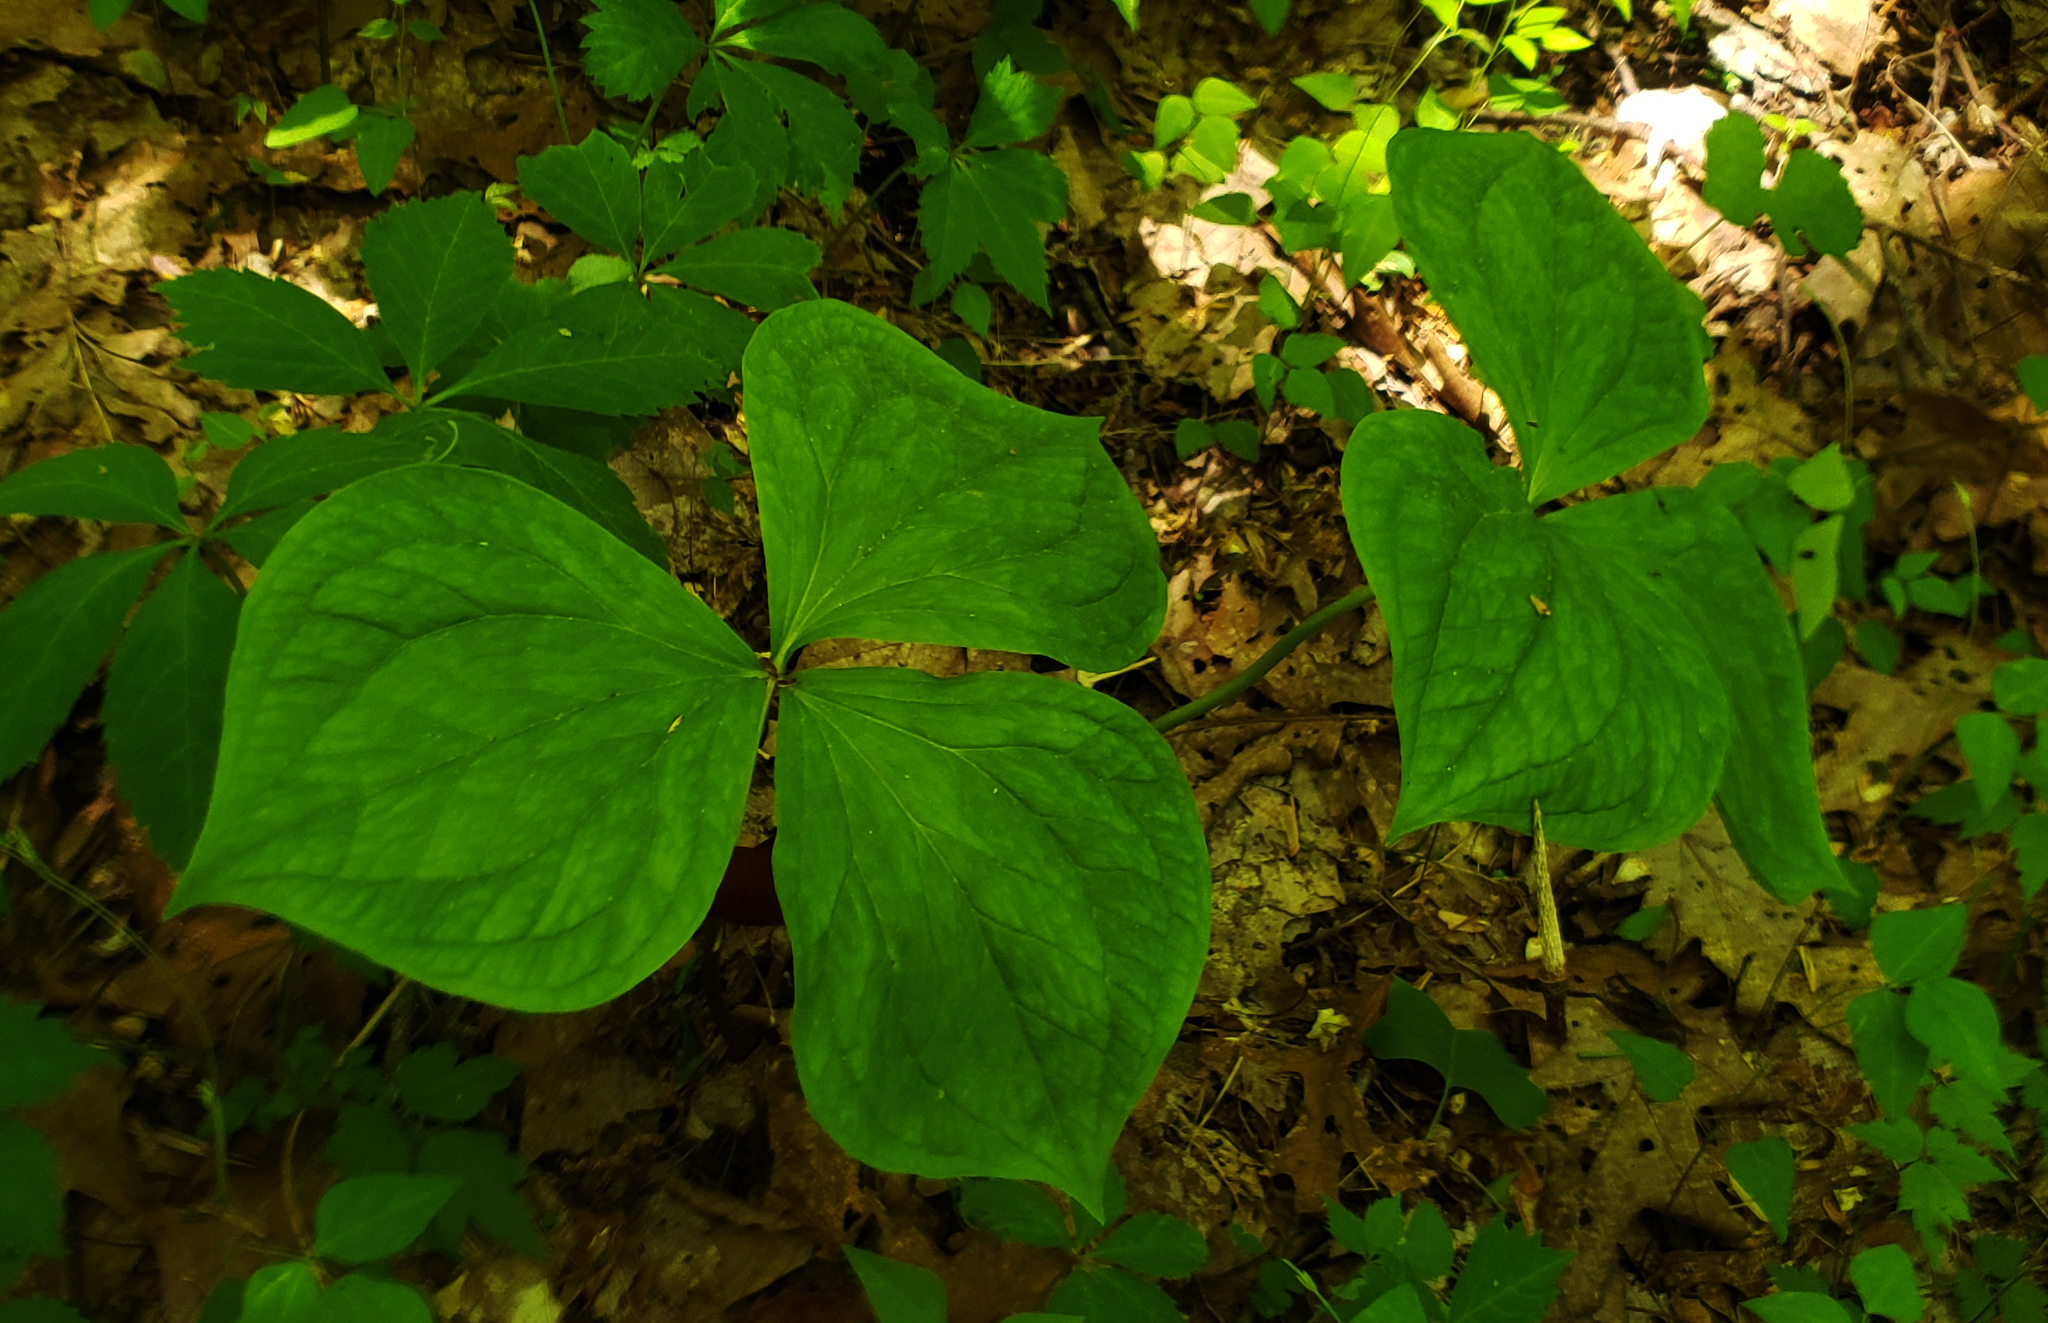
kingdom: Plantae
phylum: Tracheophyta
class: Liliopsida
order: Liliales
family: Melanthiaceae
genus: Trillium
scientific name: Trillium vaseyi
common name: Sweet trillium
